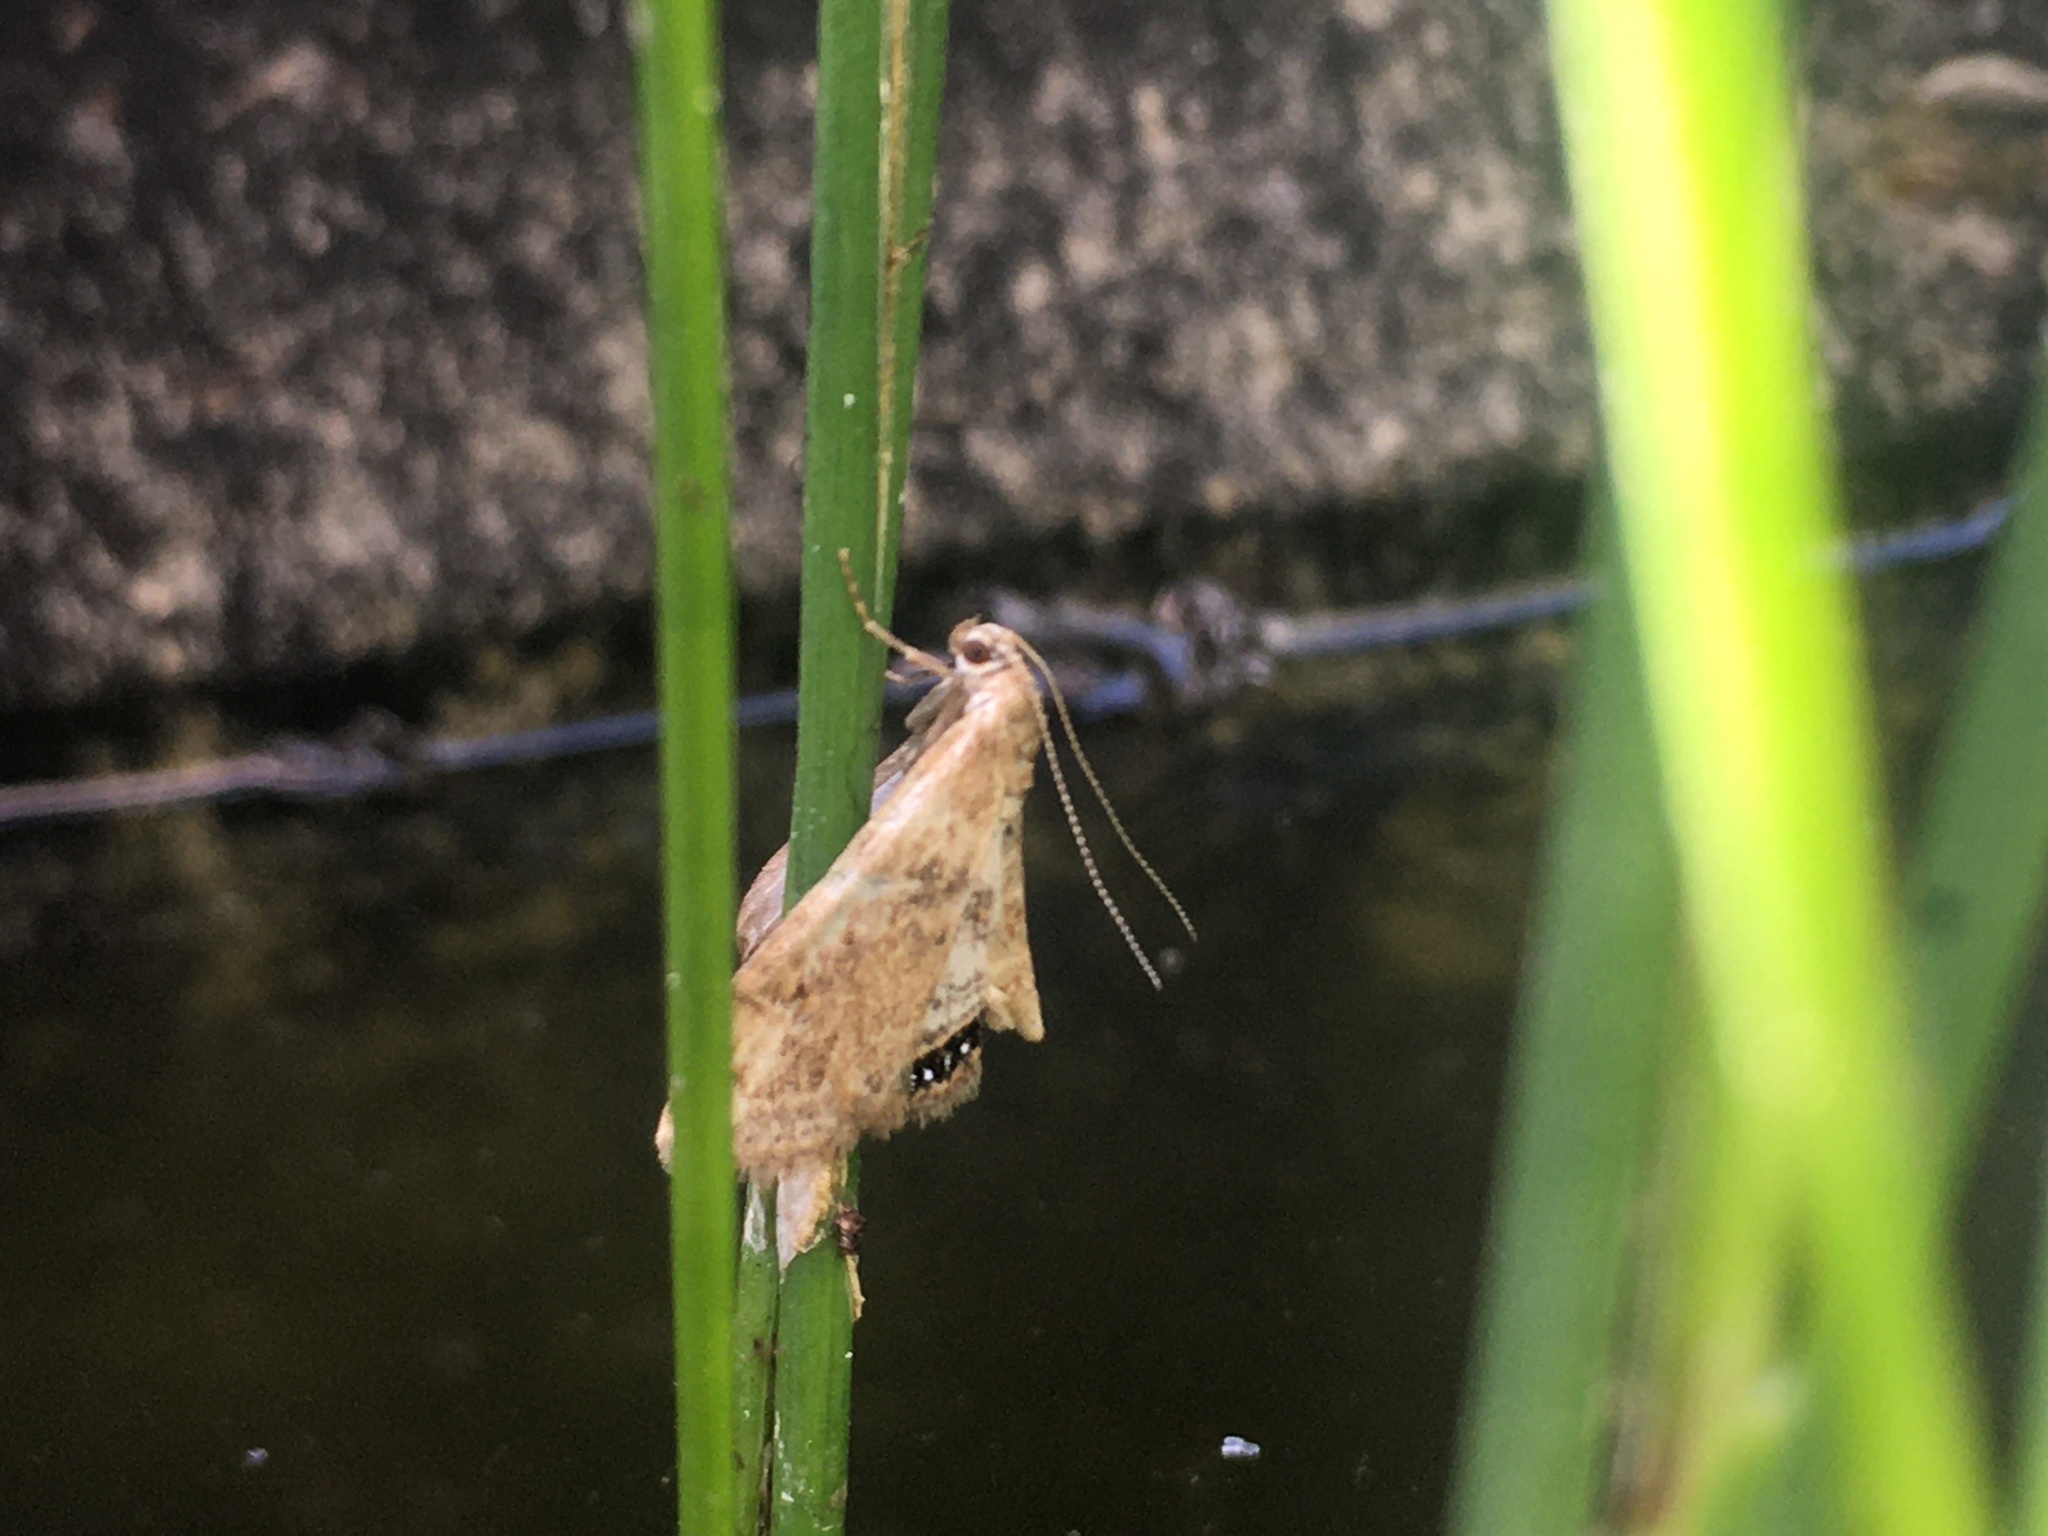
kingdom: Animalia
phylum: Arthropoda
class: Insecta
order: Lepidoptera
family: Crambidae
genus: Cataclysta
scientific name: Cataclysta lemnata
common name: Small china-mark
